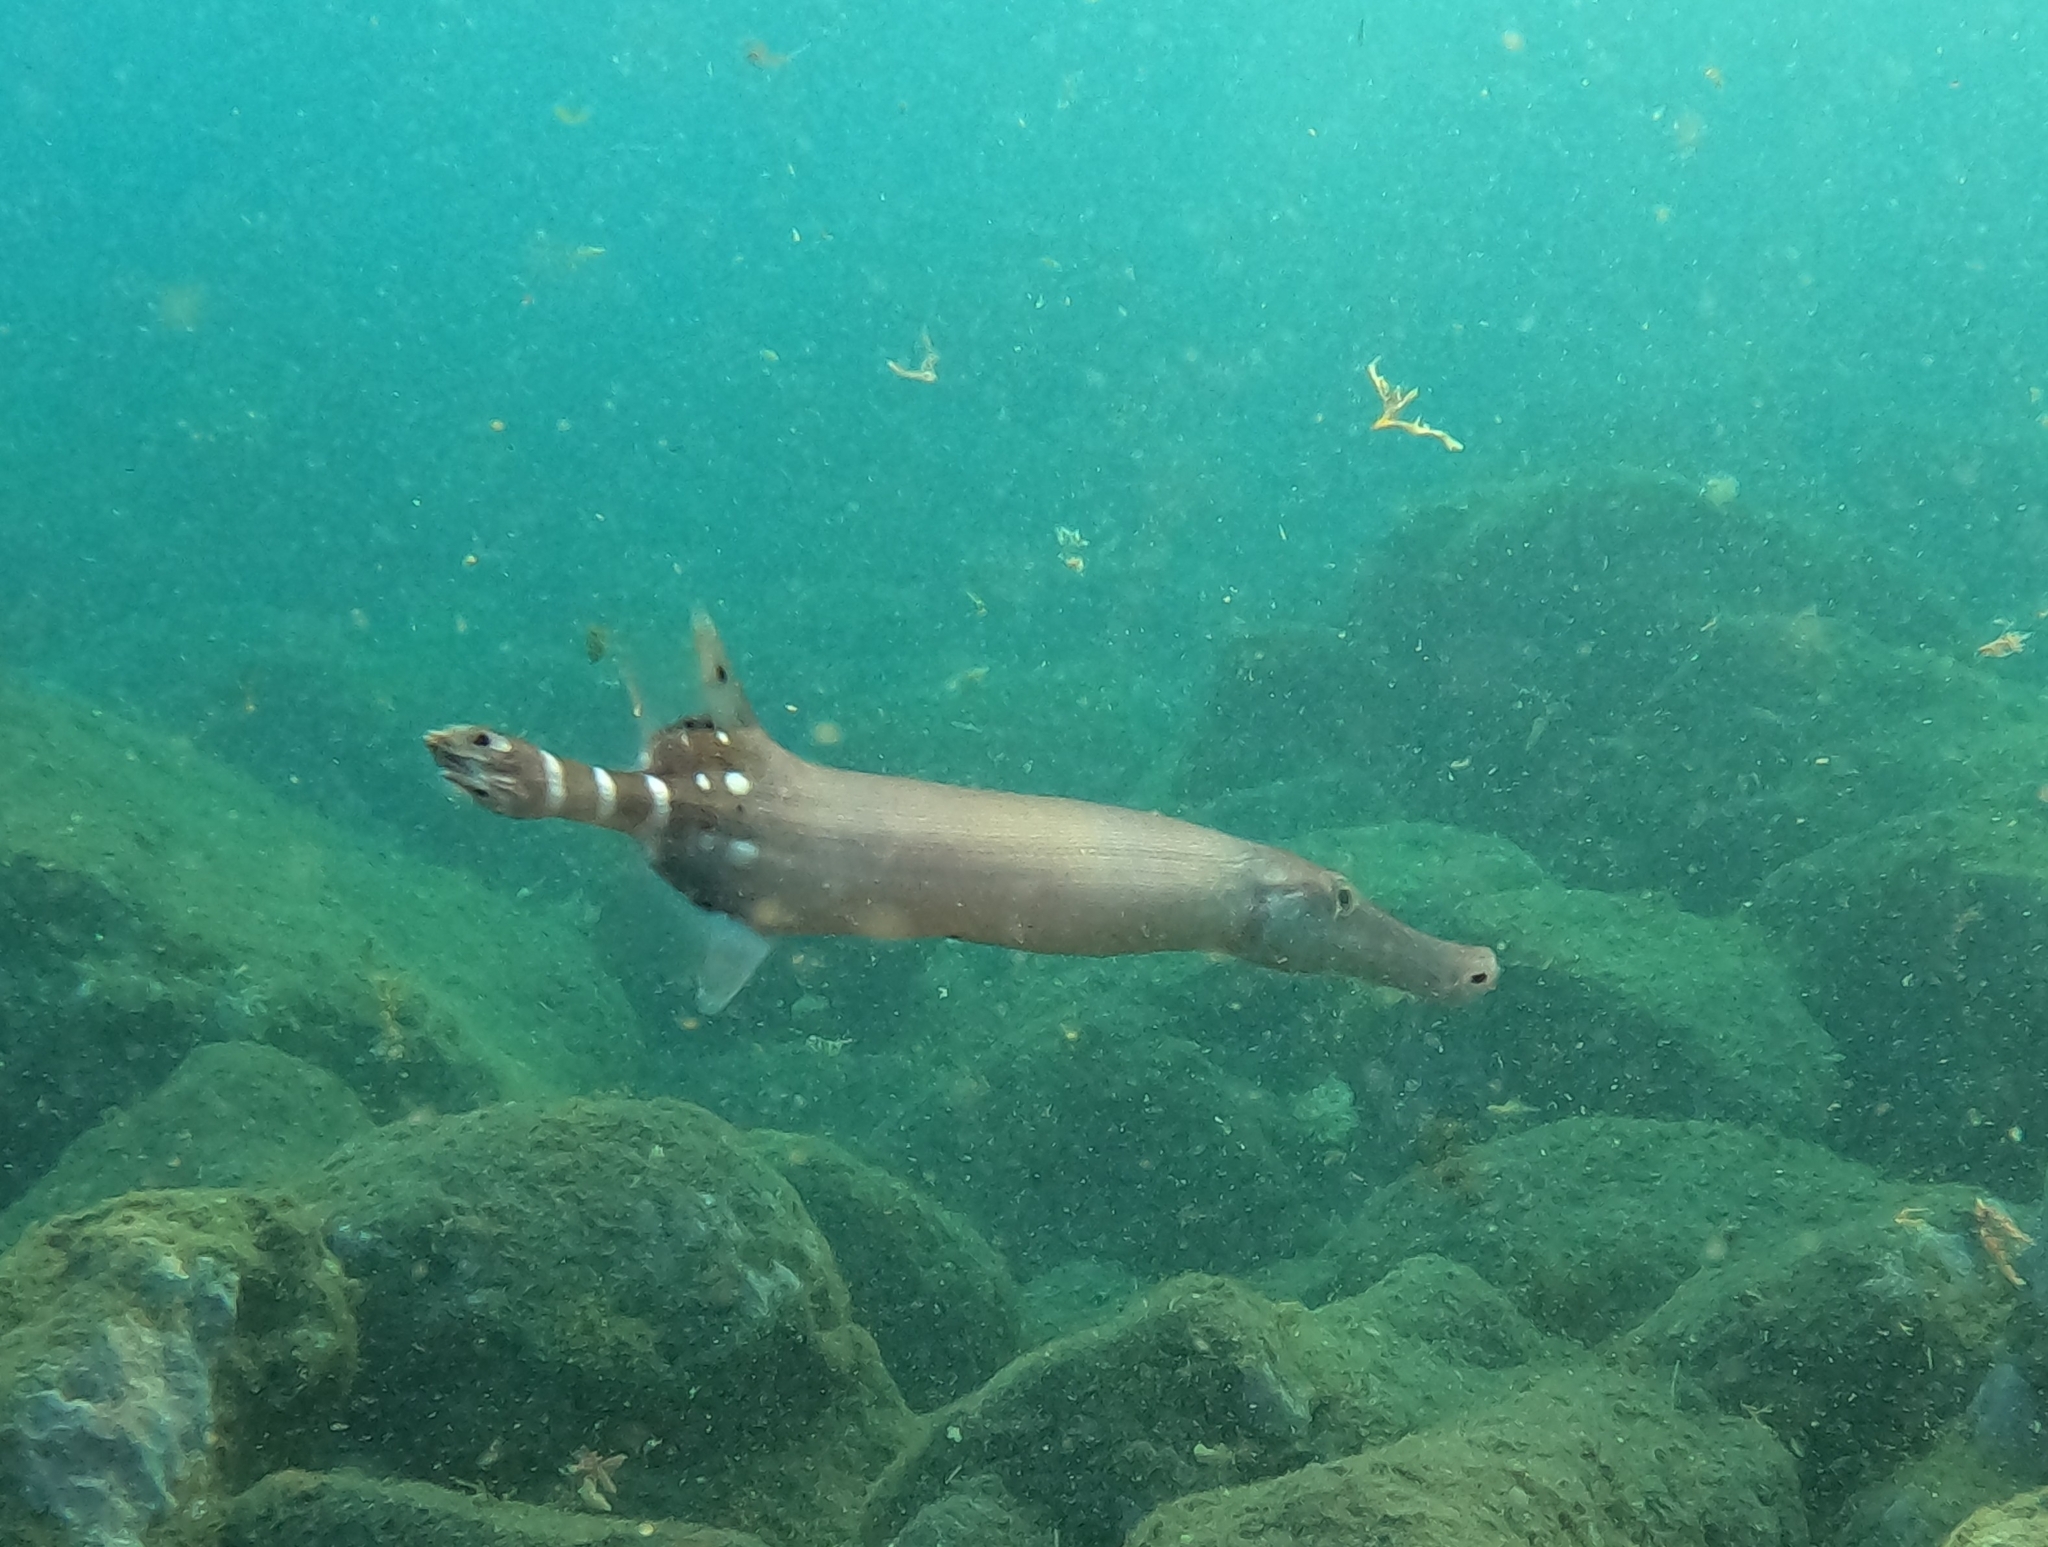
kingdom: Animalia
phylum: Chordata
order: Syngnathiformes
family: Aulostomidae
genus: Aulostomus
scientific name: Aulostomus strigosus
